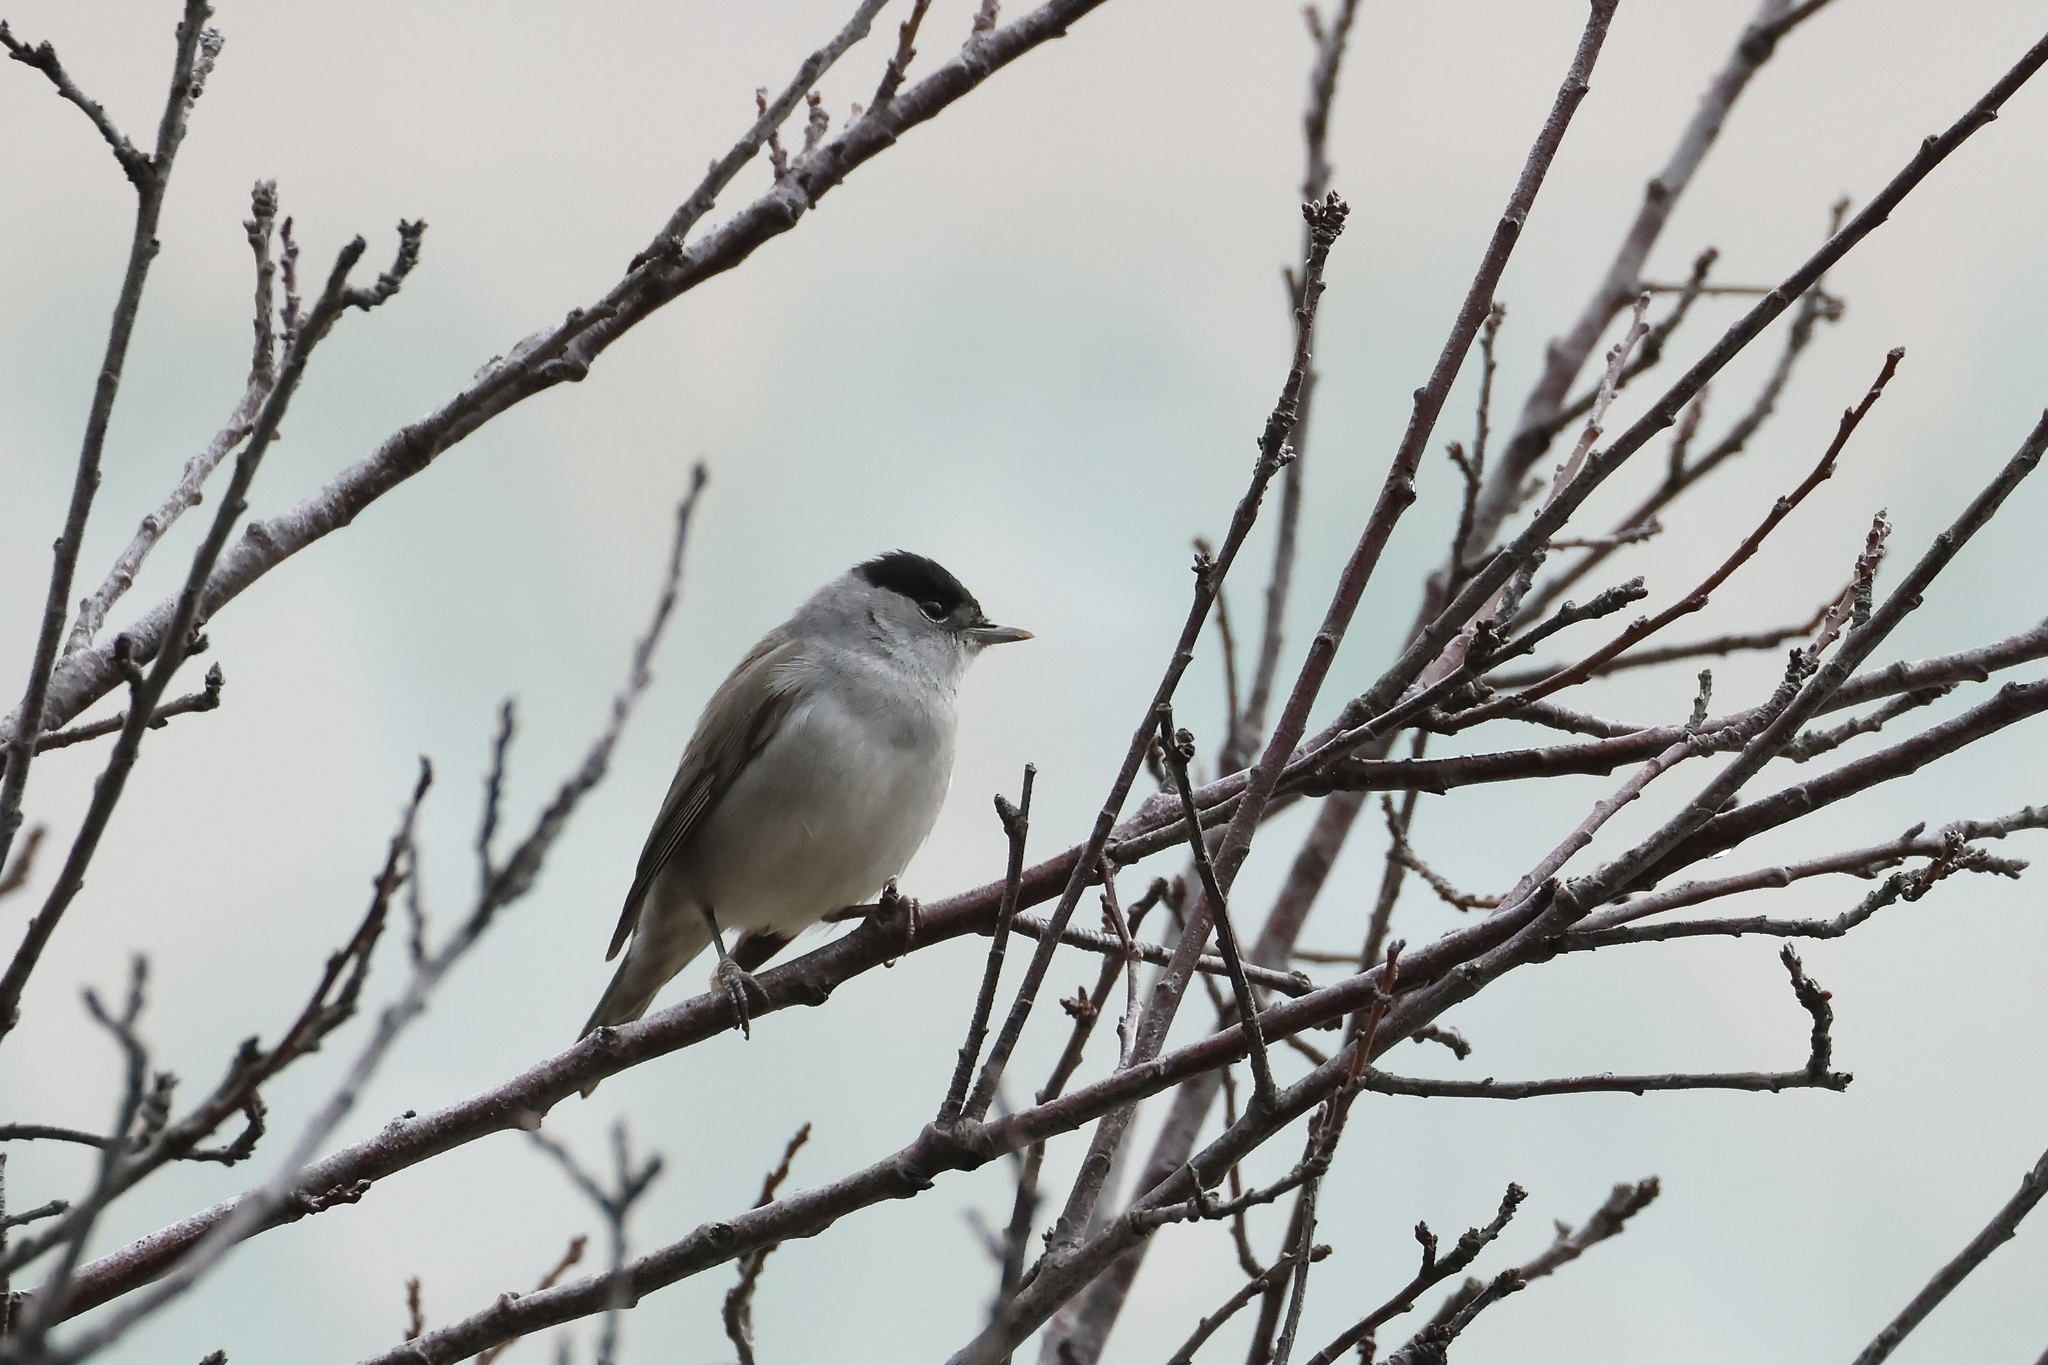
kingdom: Animalia
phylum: Chordata
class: Aves
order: Passeriformes
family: Sylviidae
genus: Sylvia
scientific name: Sylvia atricapilla
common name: Eurasian blackcap
